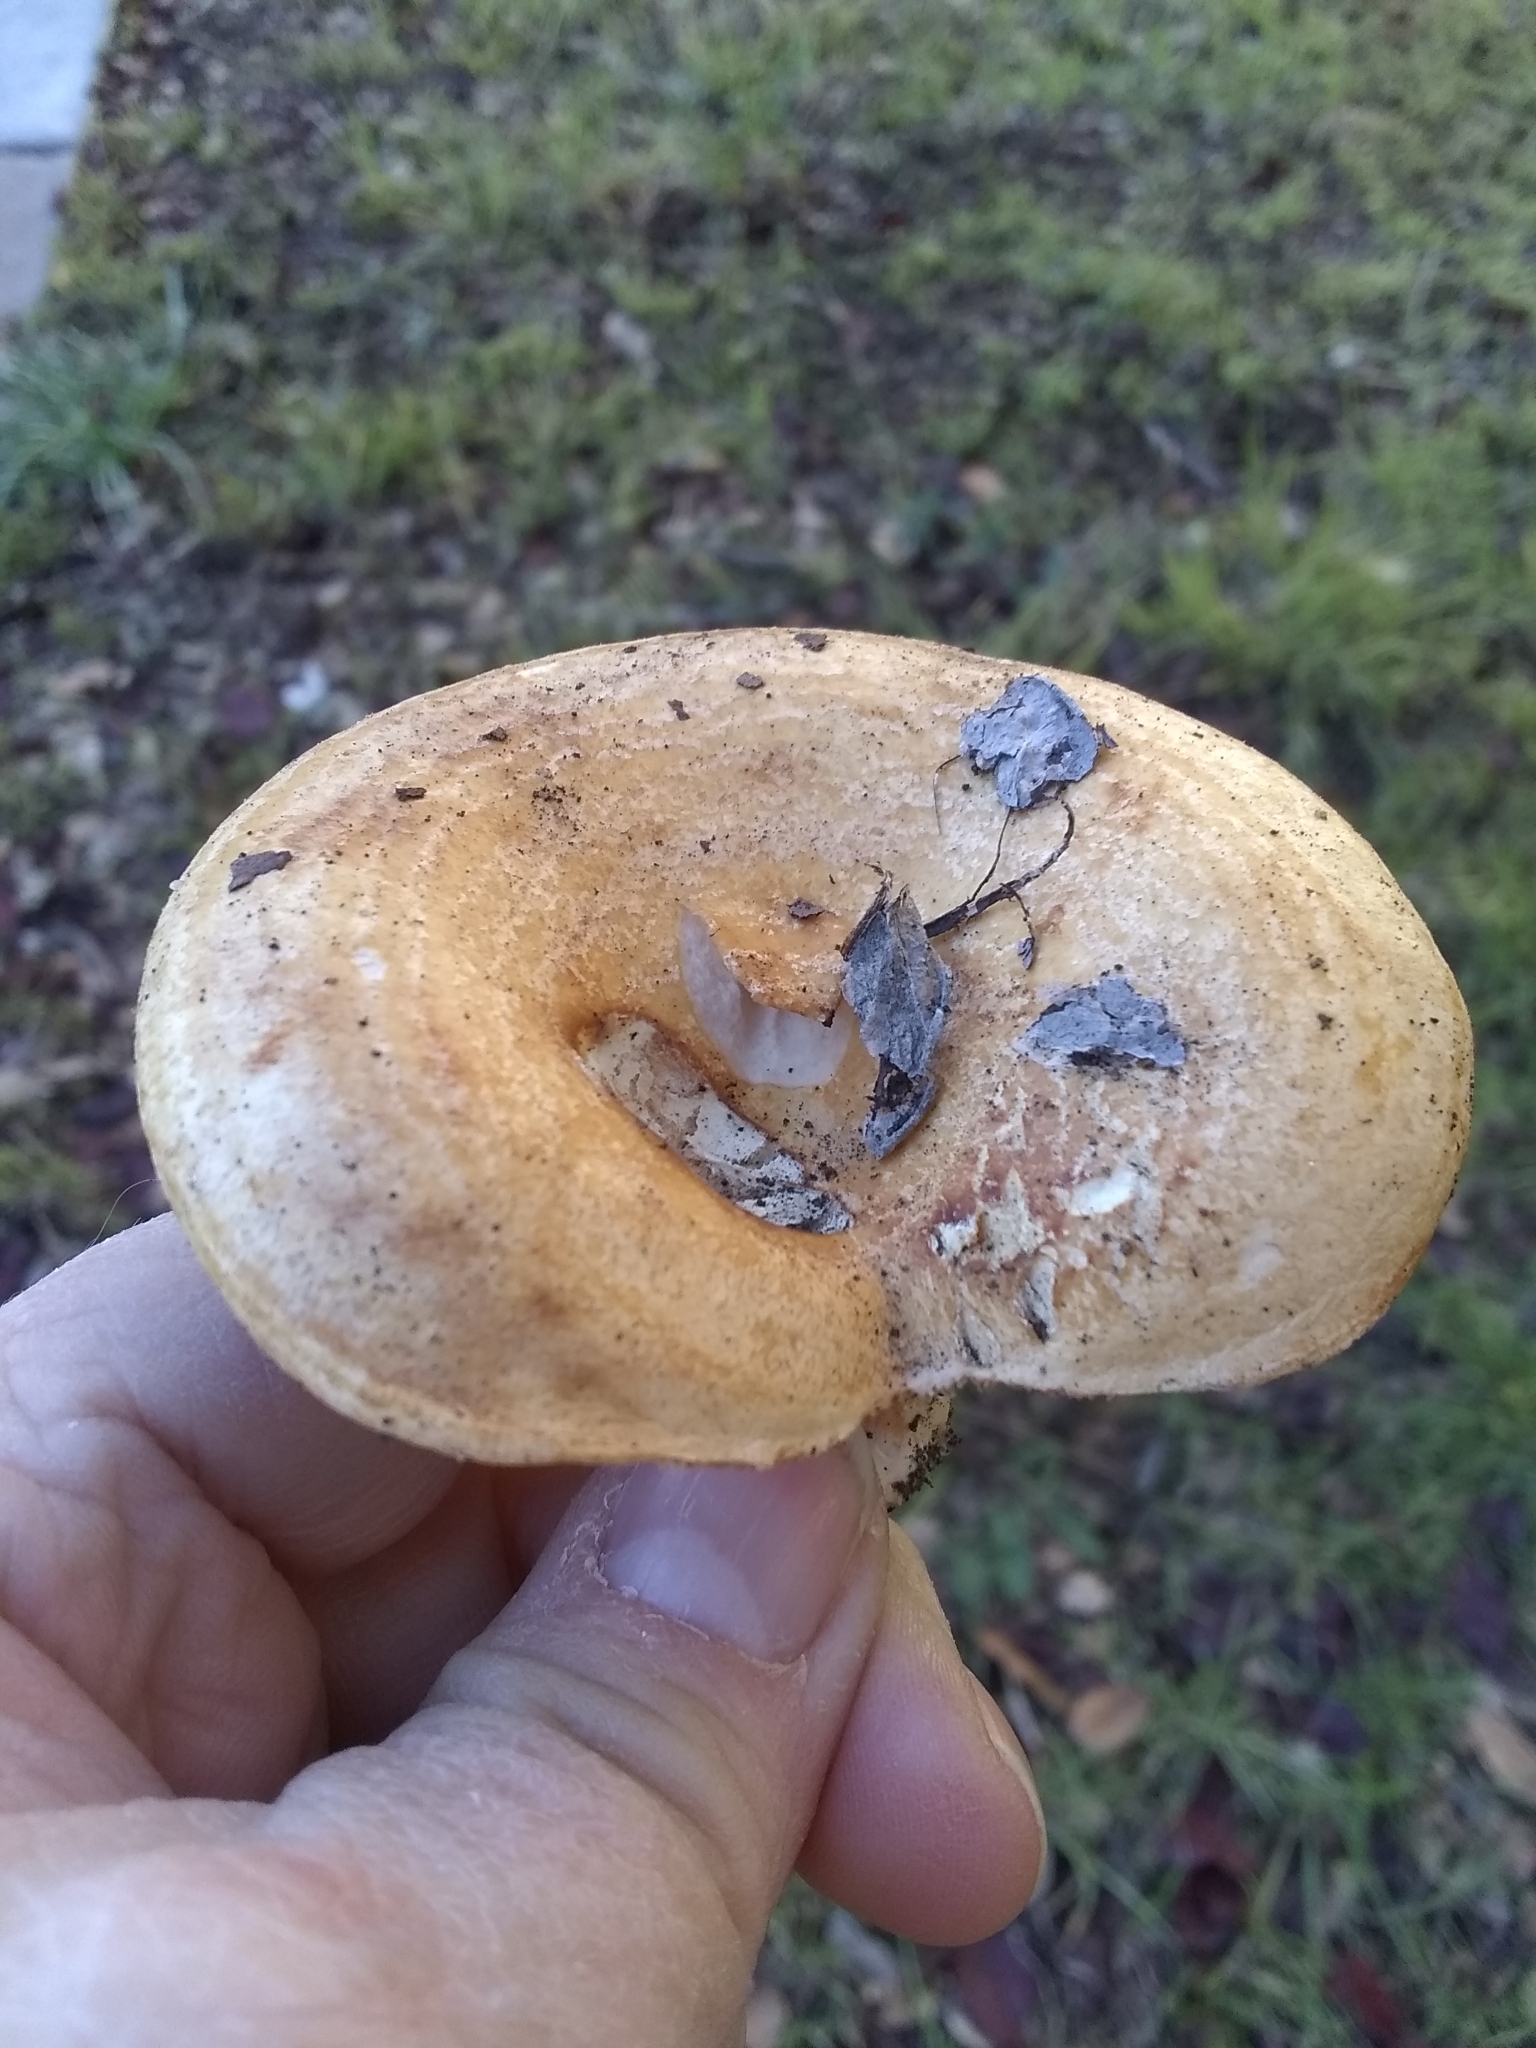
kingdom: Fungi
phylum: Basidiomycota
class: Agaricomycetes
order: Russulales
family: Russulaceae
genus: Lactarius
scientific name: Lactarius alnicola
